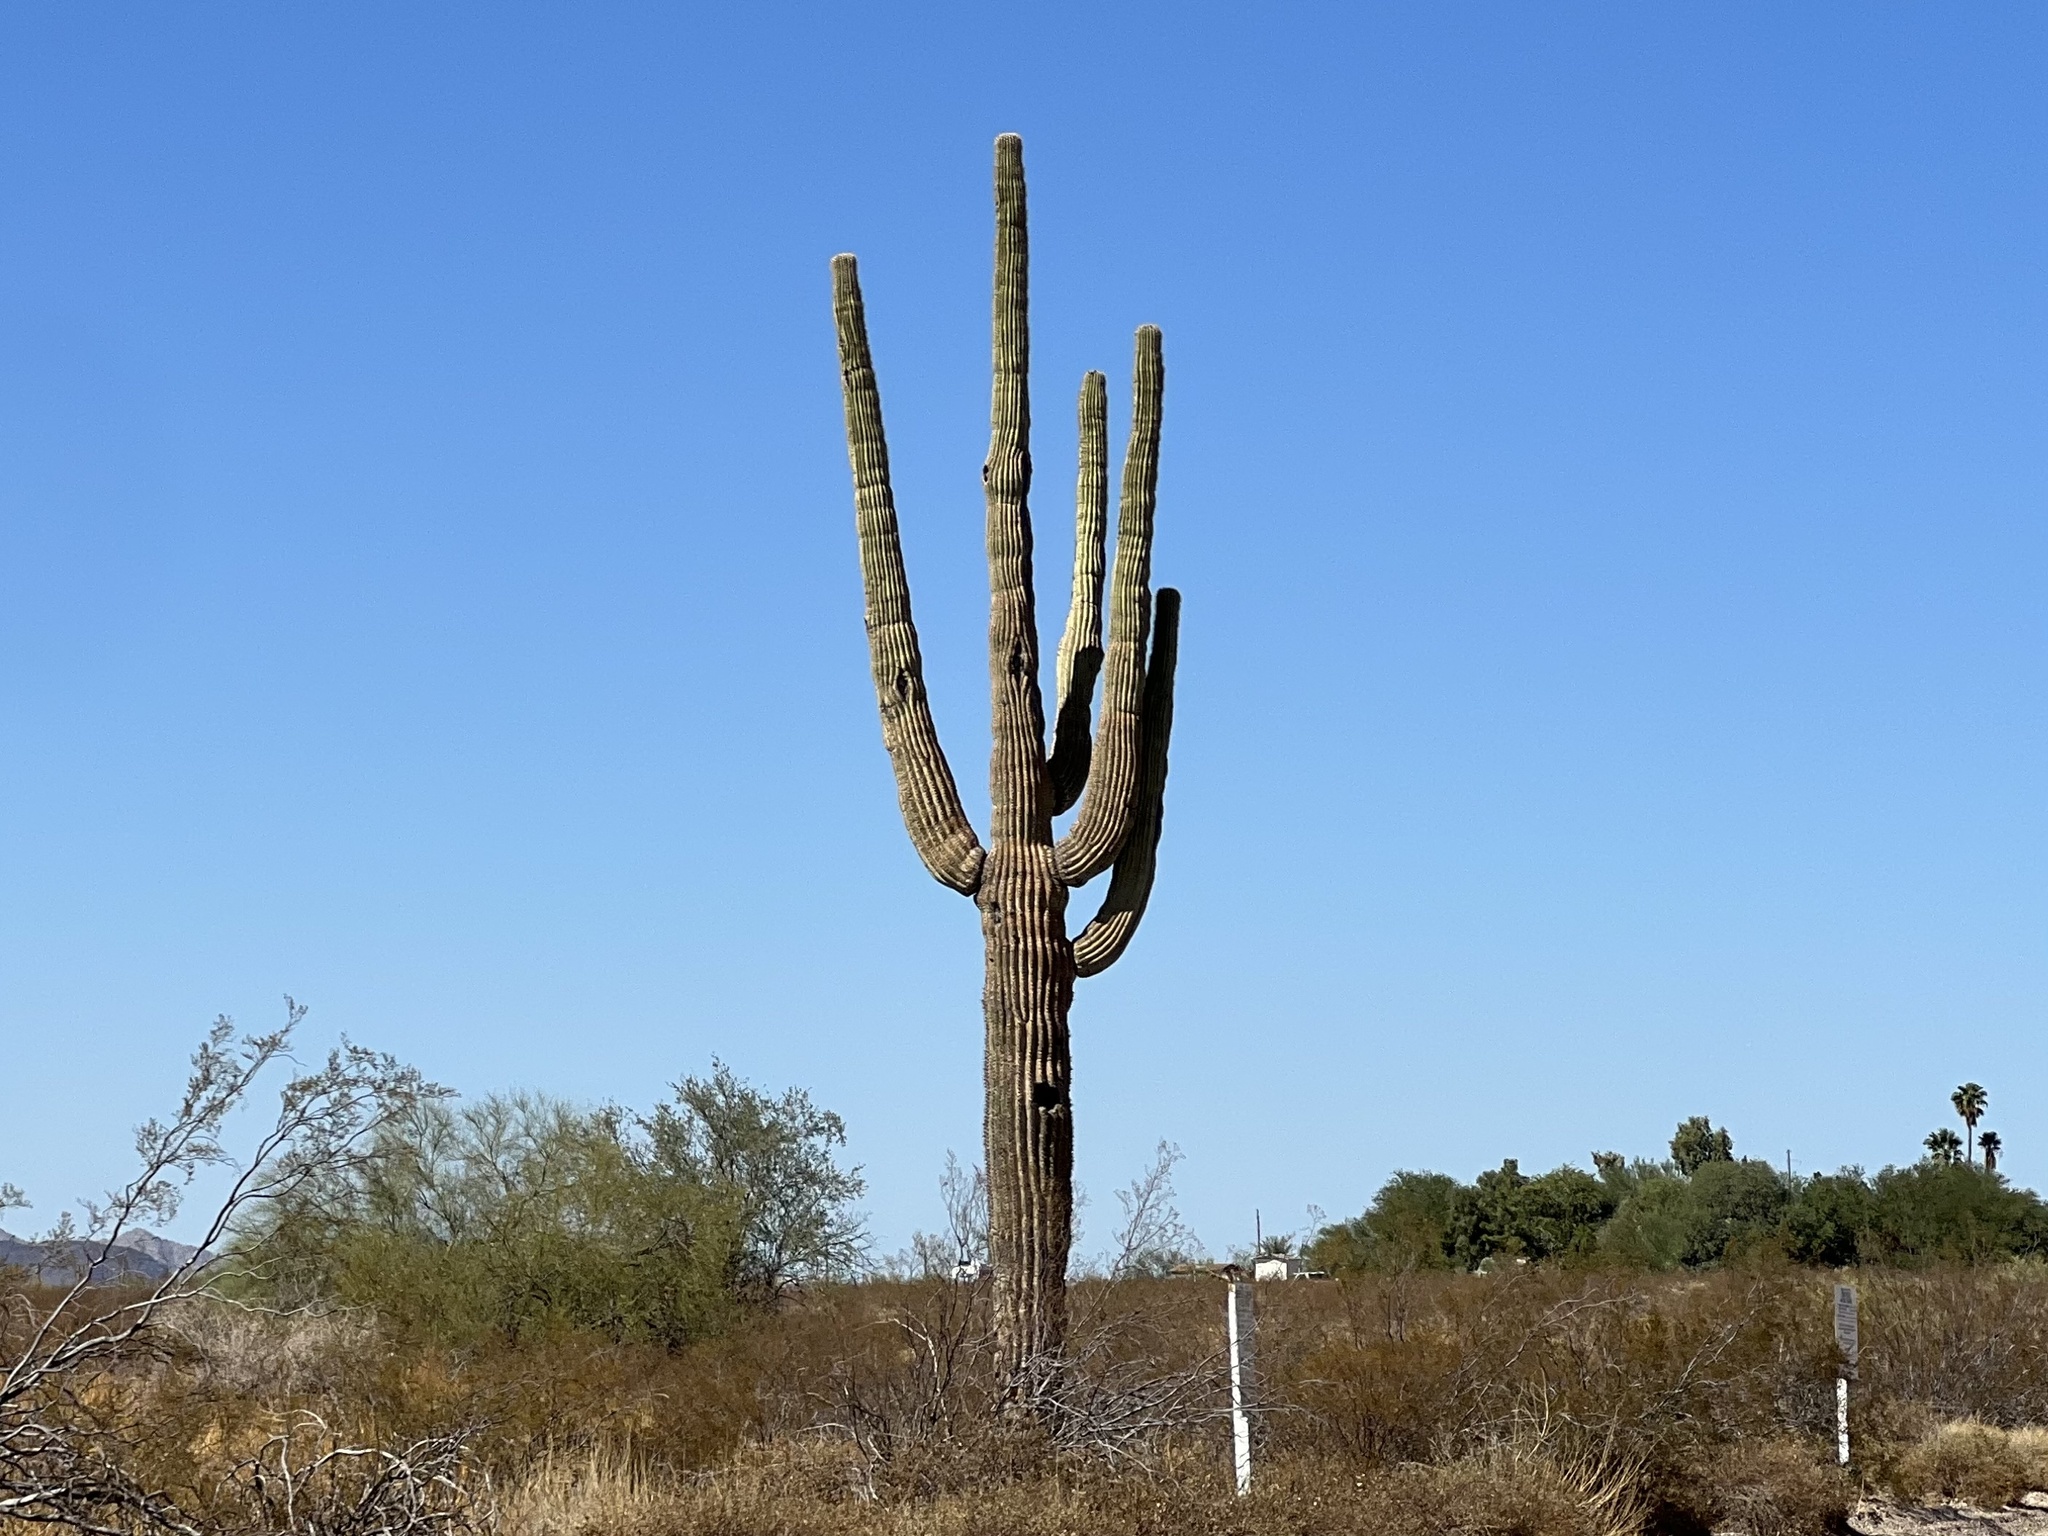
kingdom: Plantae
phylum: Tracheophyta
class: Magnoliopsida
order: Caryophyllales
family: Cactaceae
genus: Carnegiea
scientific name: Carnegiea gigantea
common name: Saguaro
